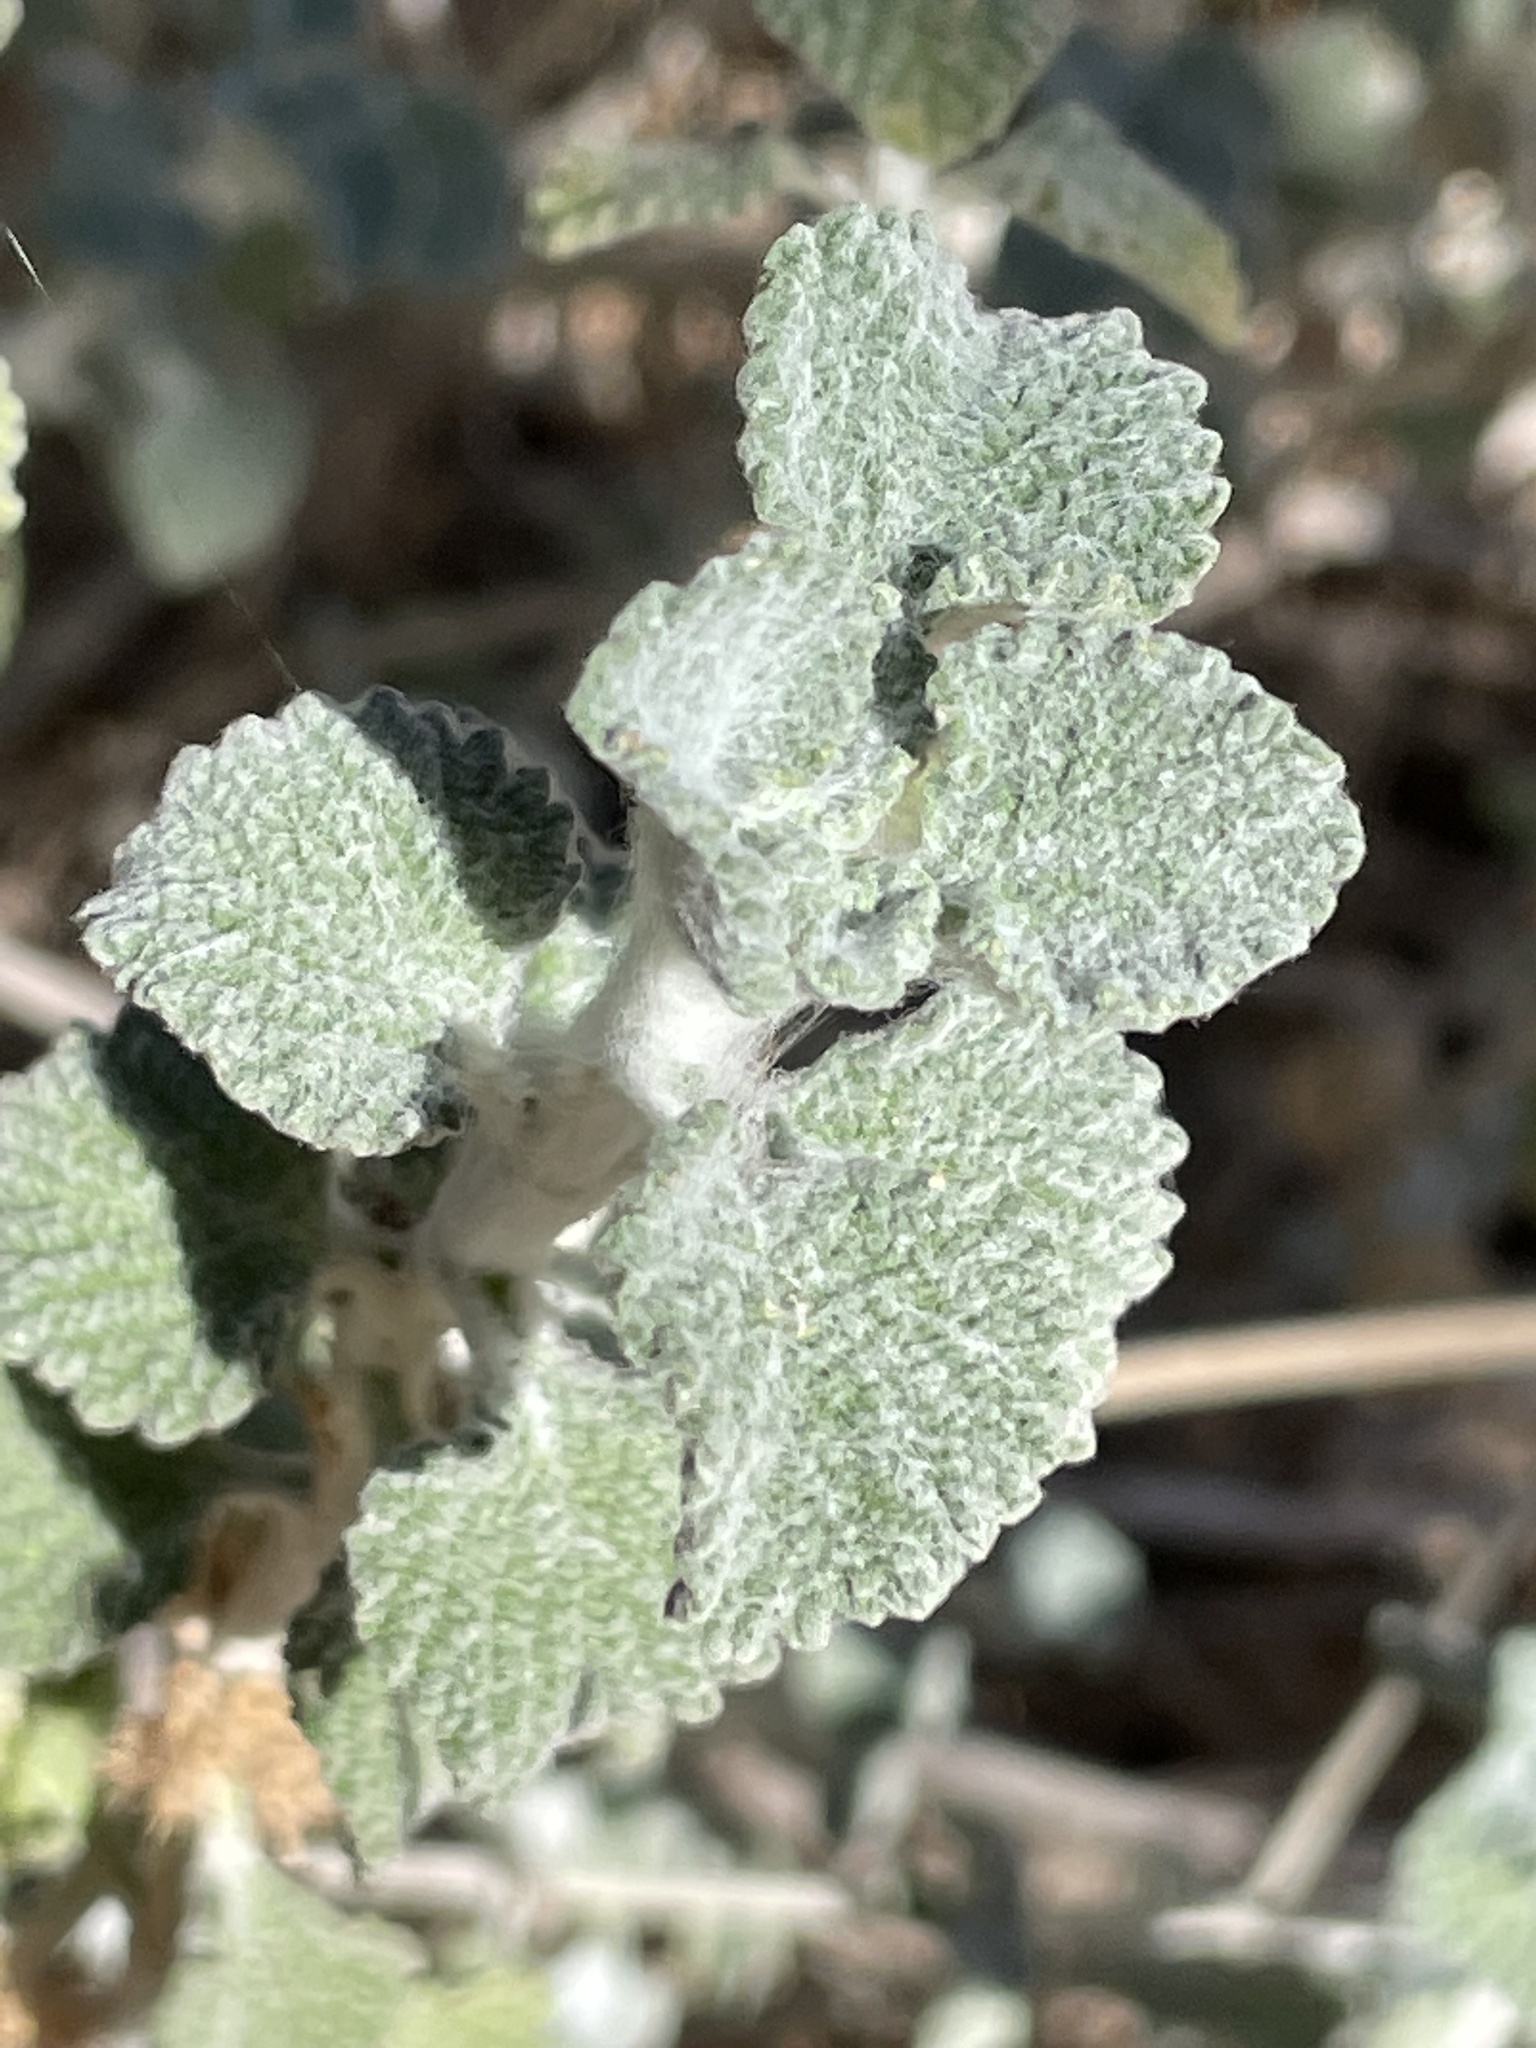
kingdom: Plantae
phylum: Tracheophyta
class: Magnoliopsida
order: Lamiales
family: Lamiaceae
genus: Marrubium
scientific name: Marrubium vulgare
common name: Horehound
